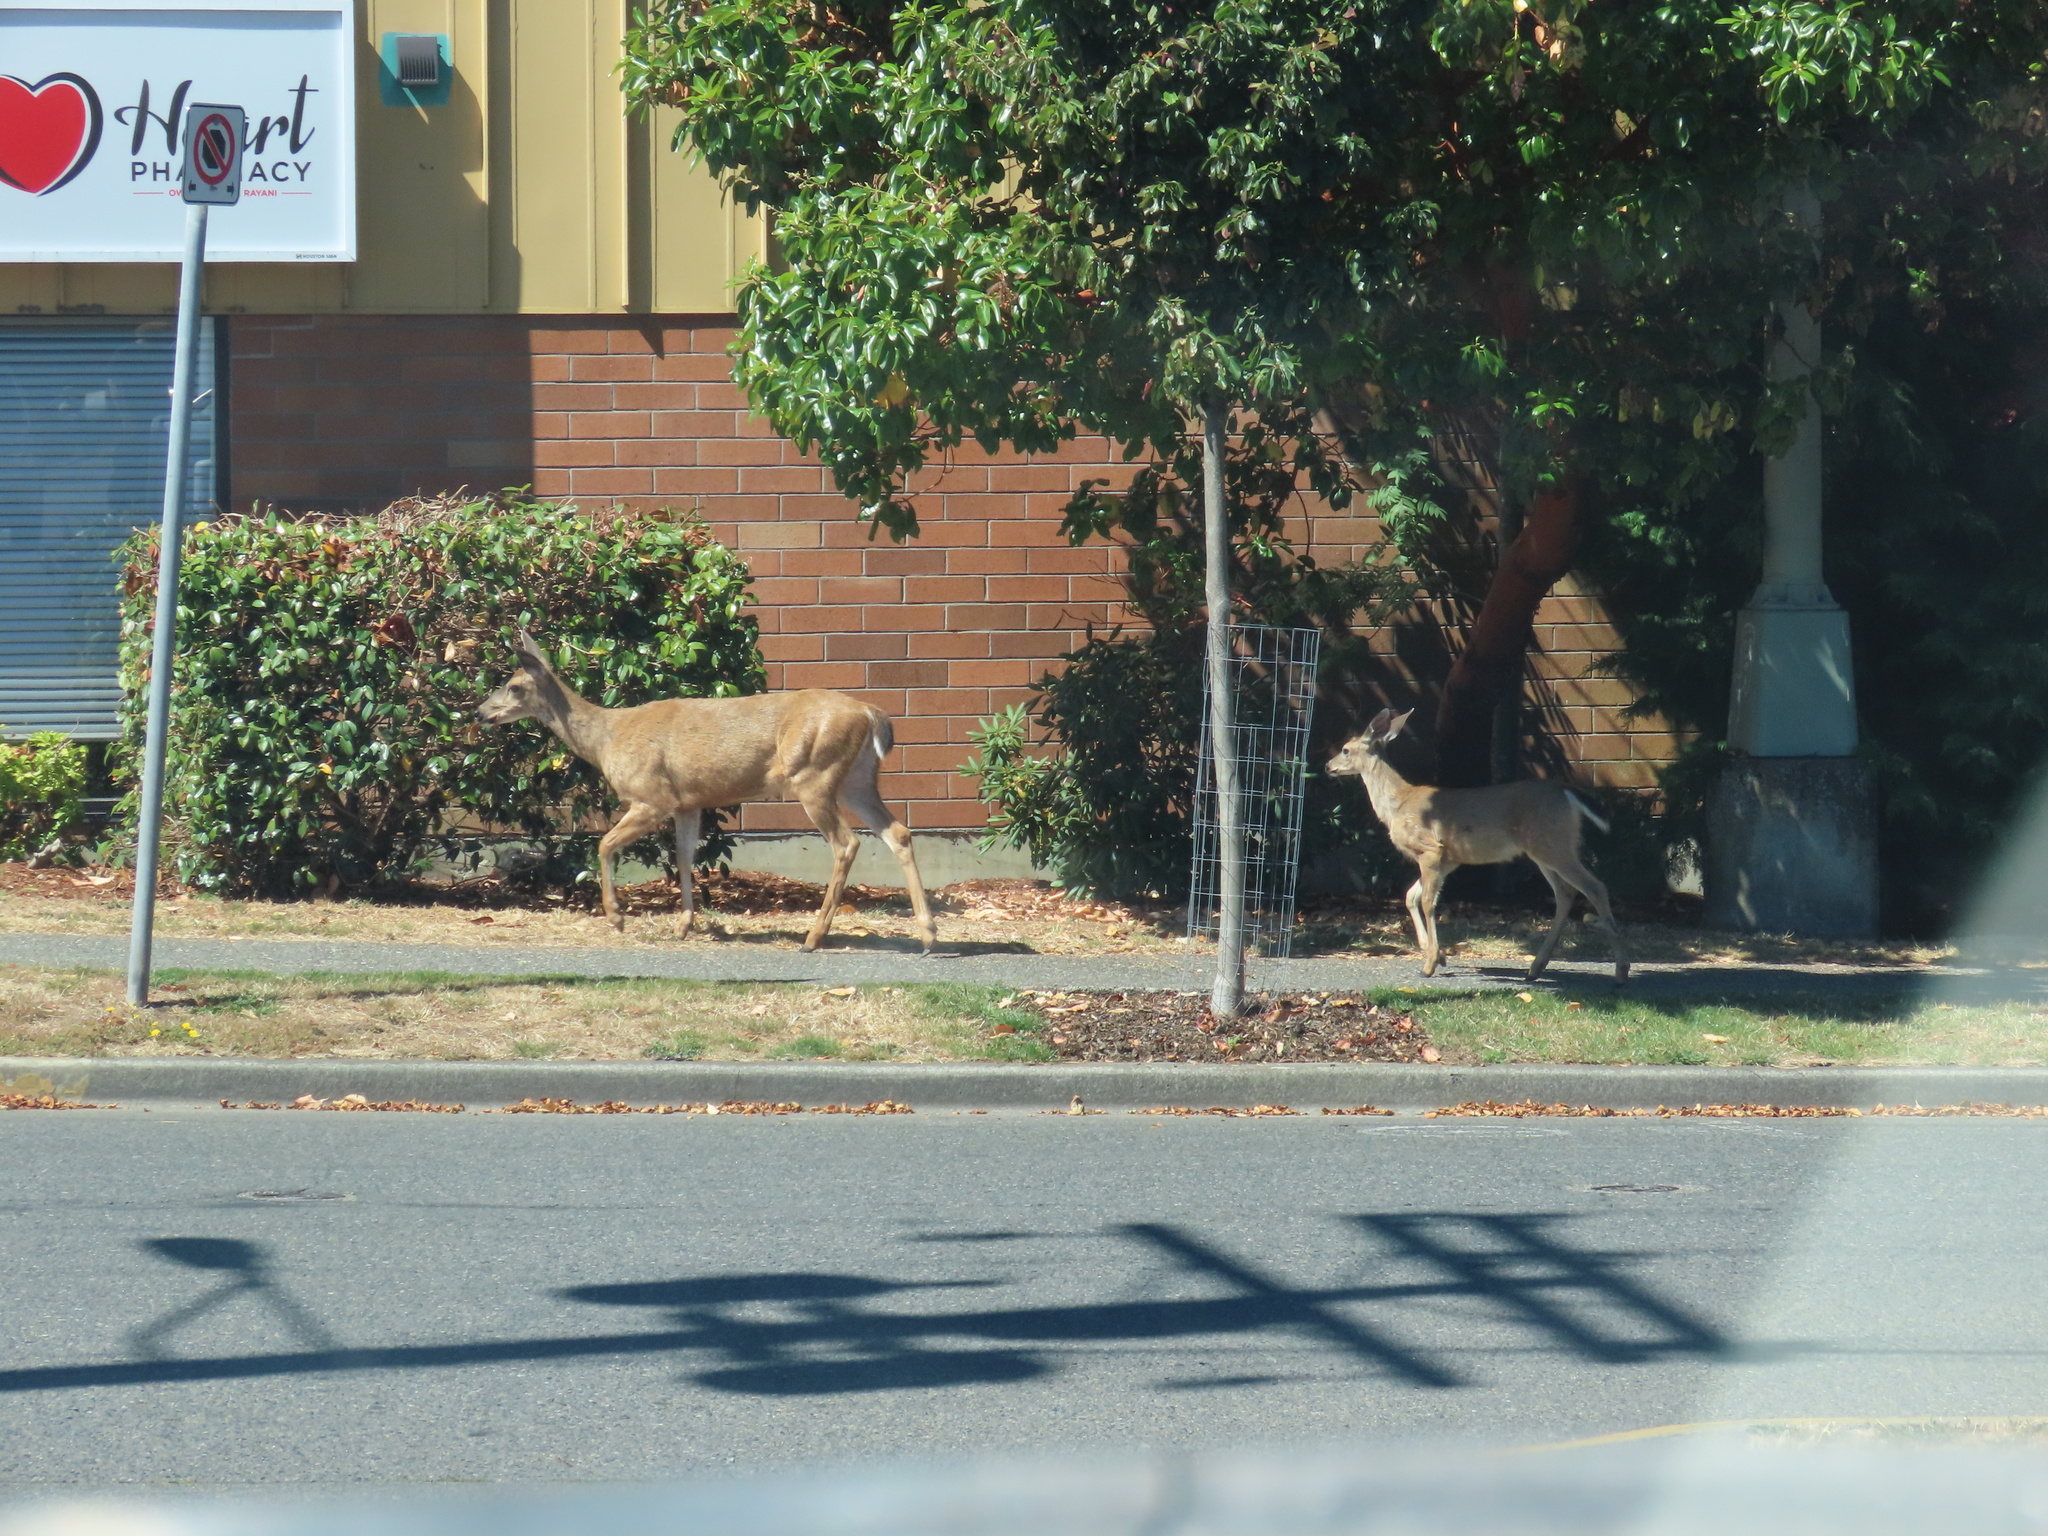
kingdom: Animalia
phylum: Chordata
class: Mammalia
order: Artiodactyla
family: Cervidae
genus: Odocoileus
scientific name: Odocoileus hemionus
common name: Mule deer
